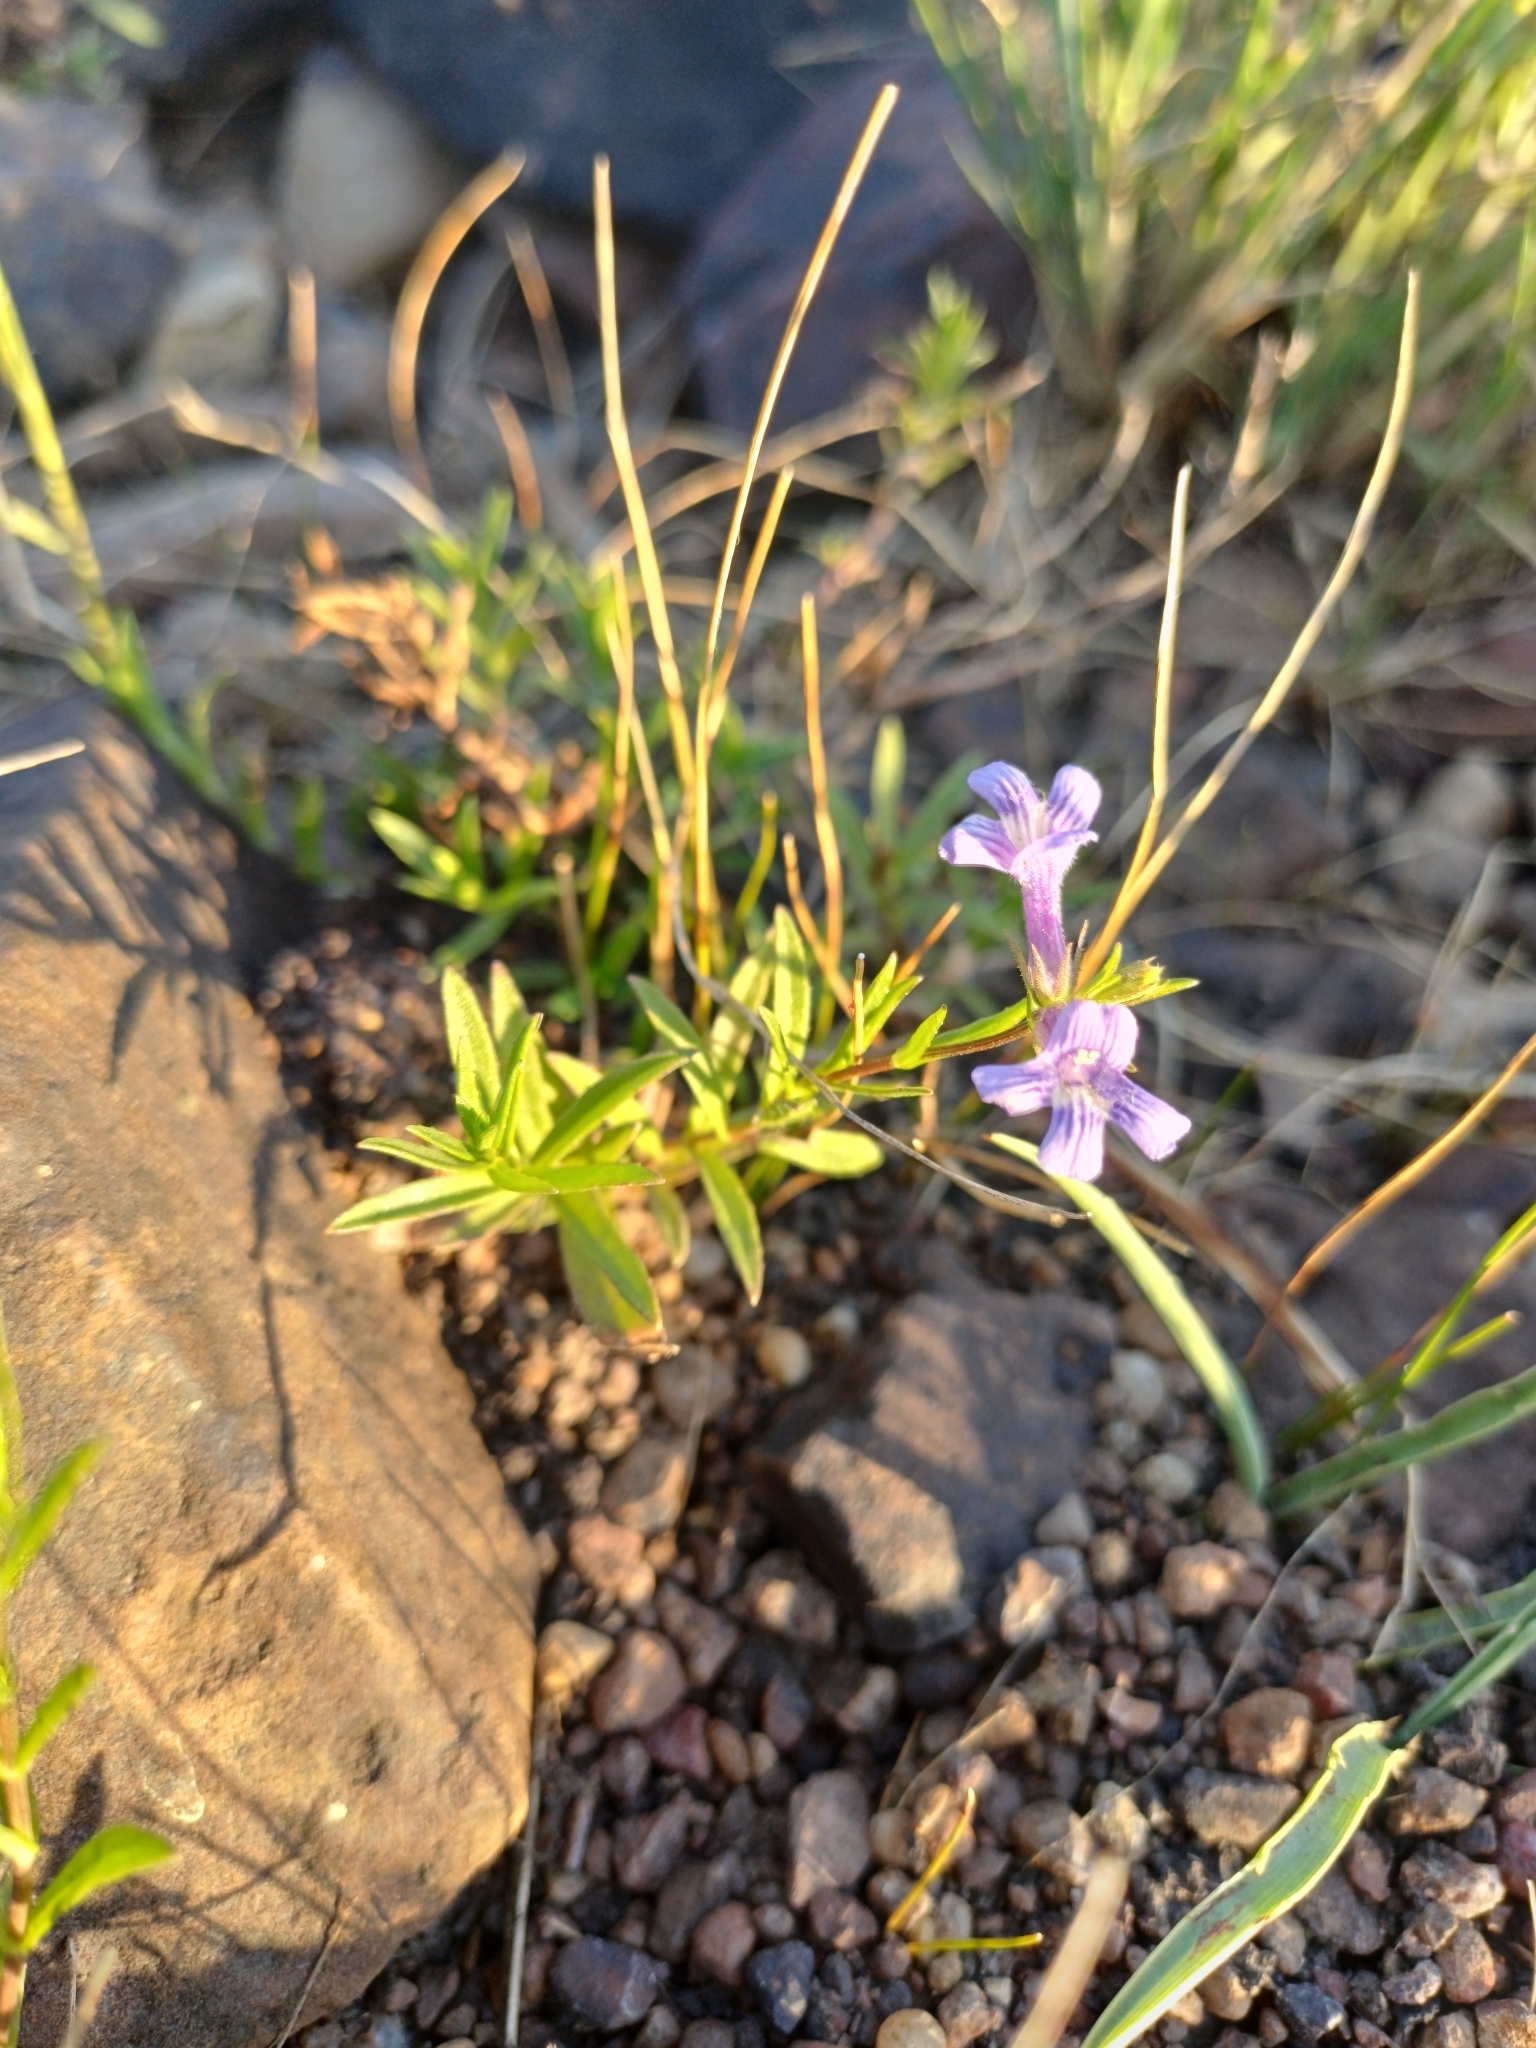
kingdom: Plantae
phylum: Tracheophyta
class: Magnoliopsida
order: Lamiales
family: Plantaginaceae
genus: Stemodia
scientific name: Stemodia palustris
